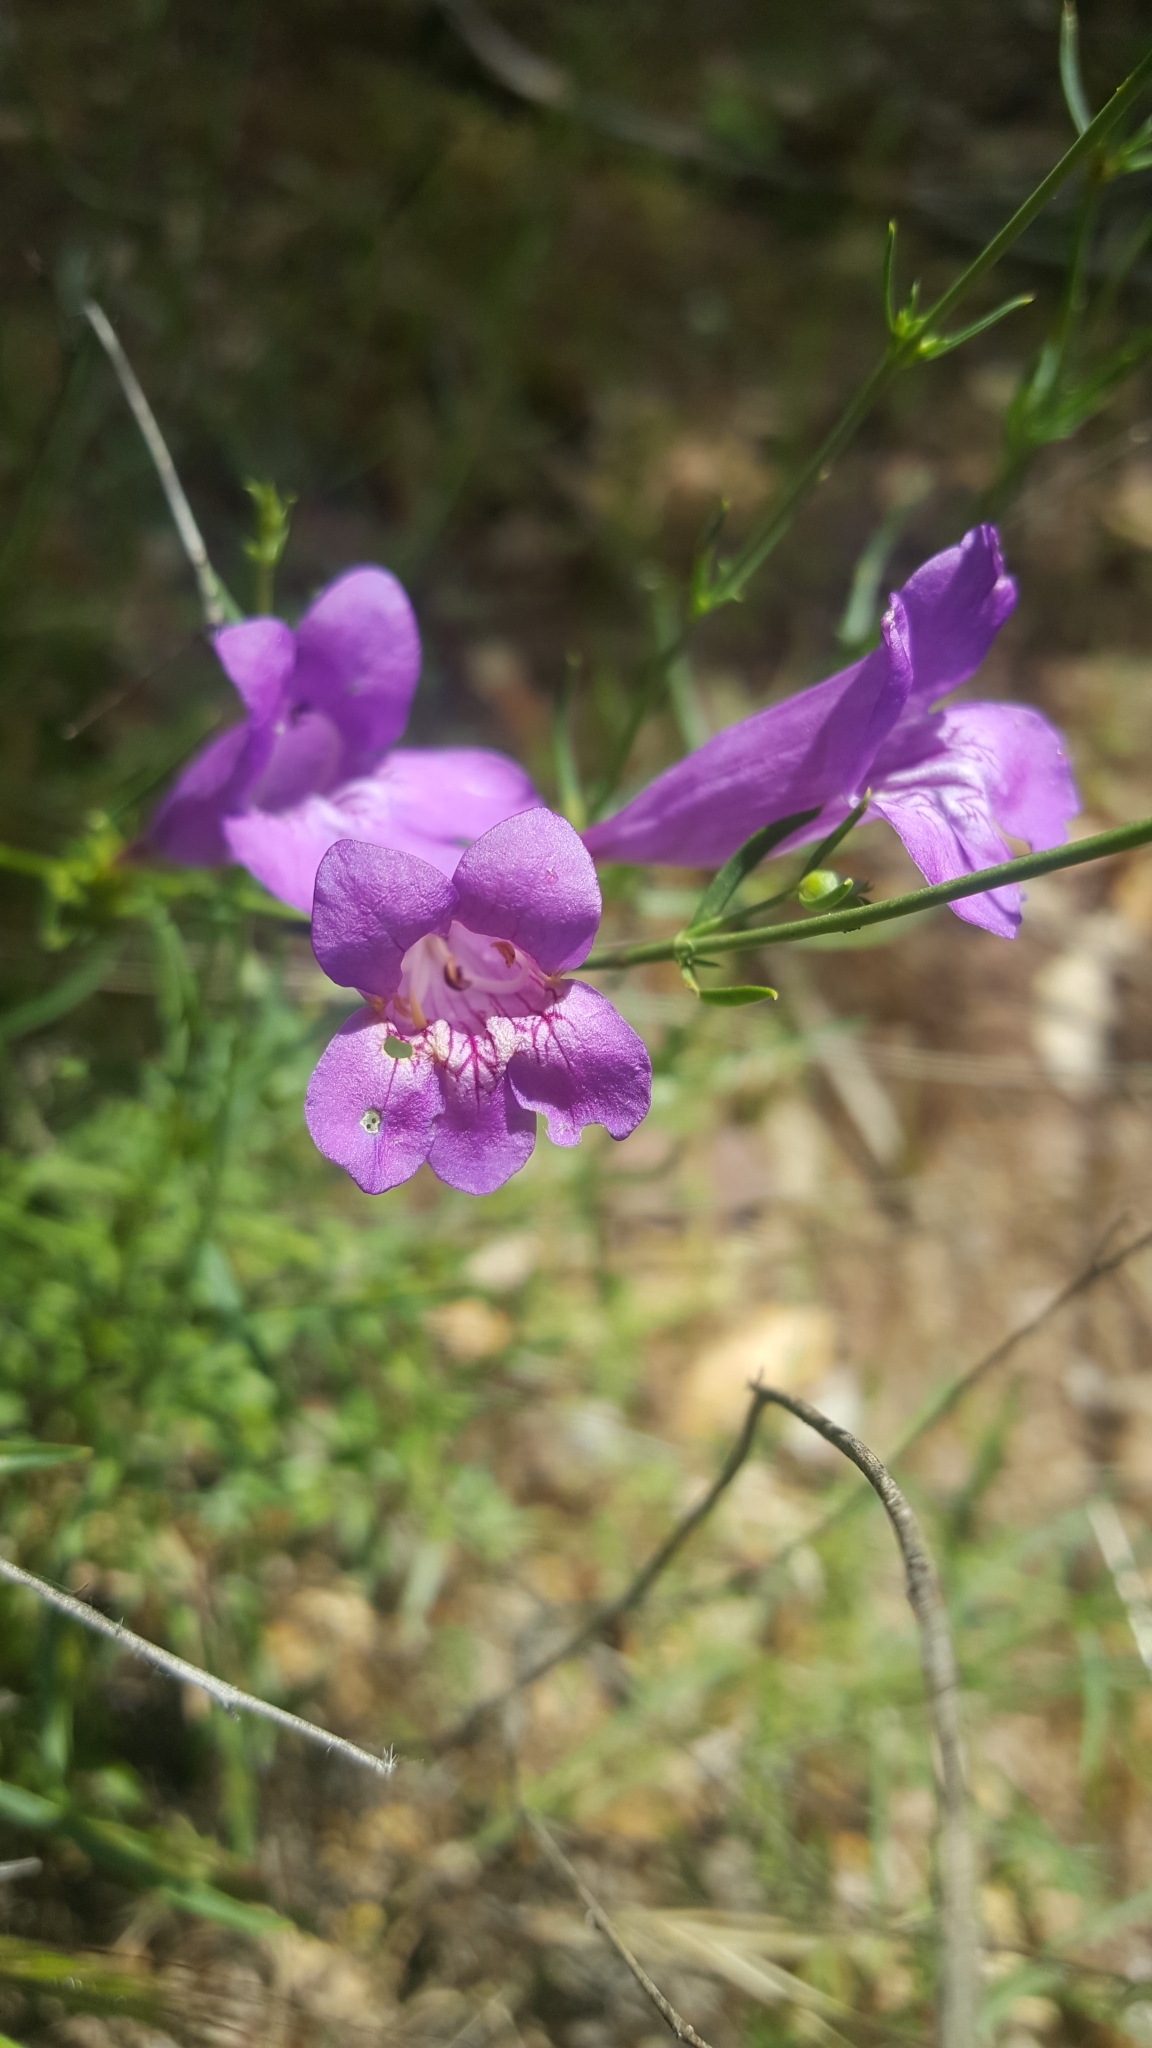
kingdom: Plantae
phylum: Tracheophyta
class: Magnoliopsida
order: Lamiales
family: Plantaginaceae
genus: Penstemon
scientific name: Penstemon heterophyllus
